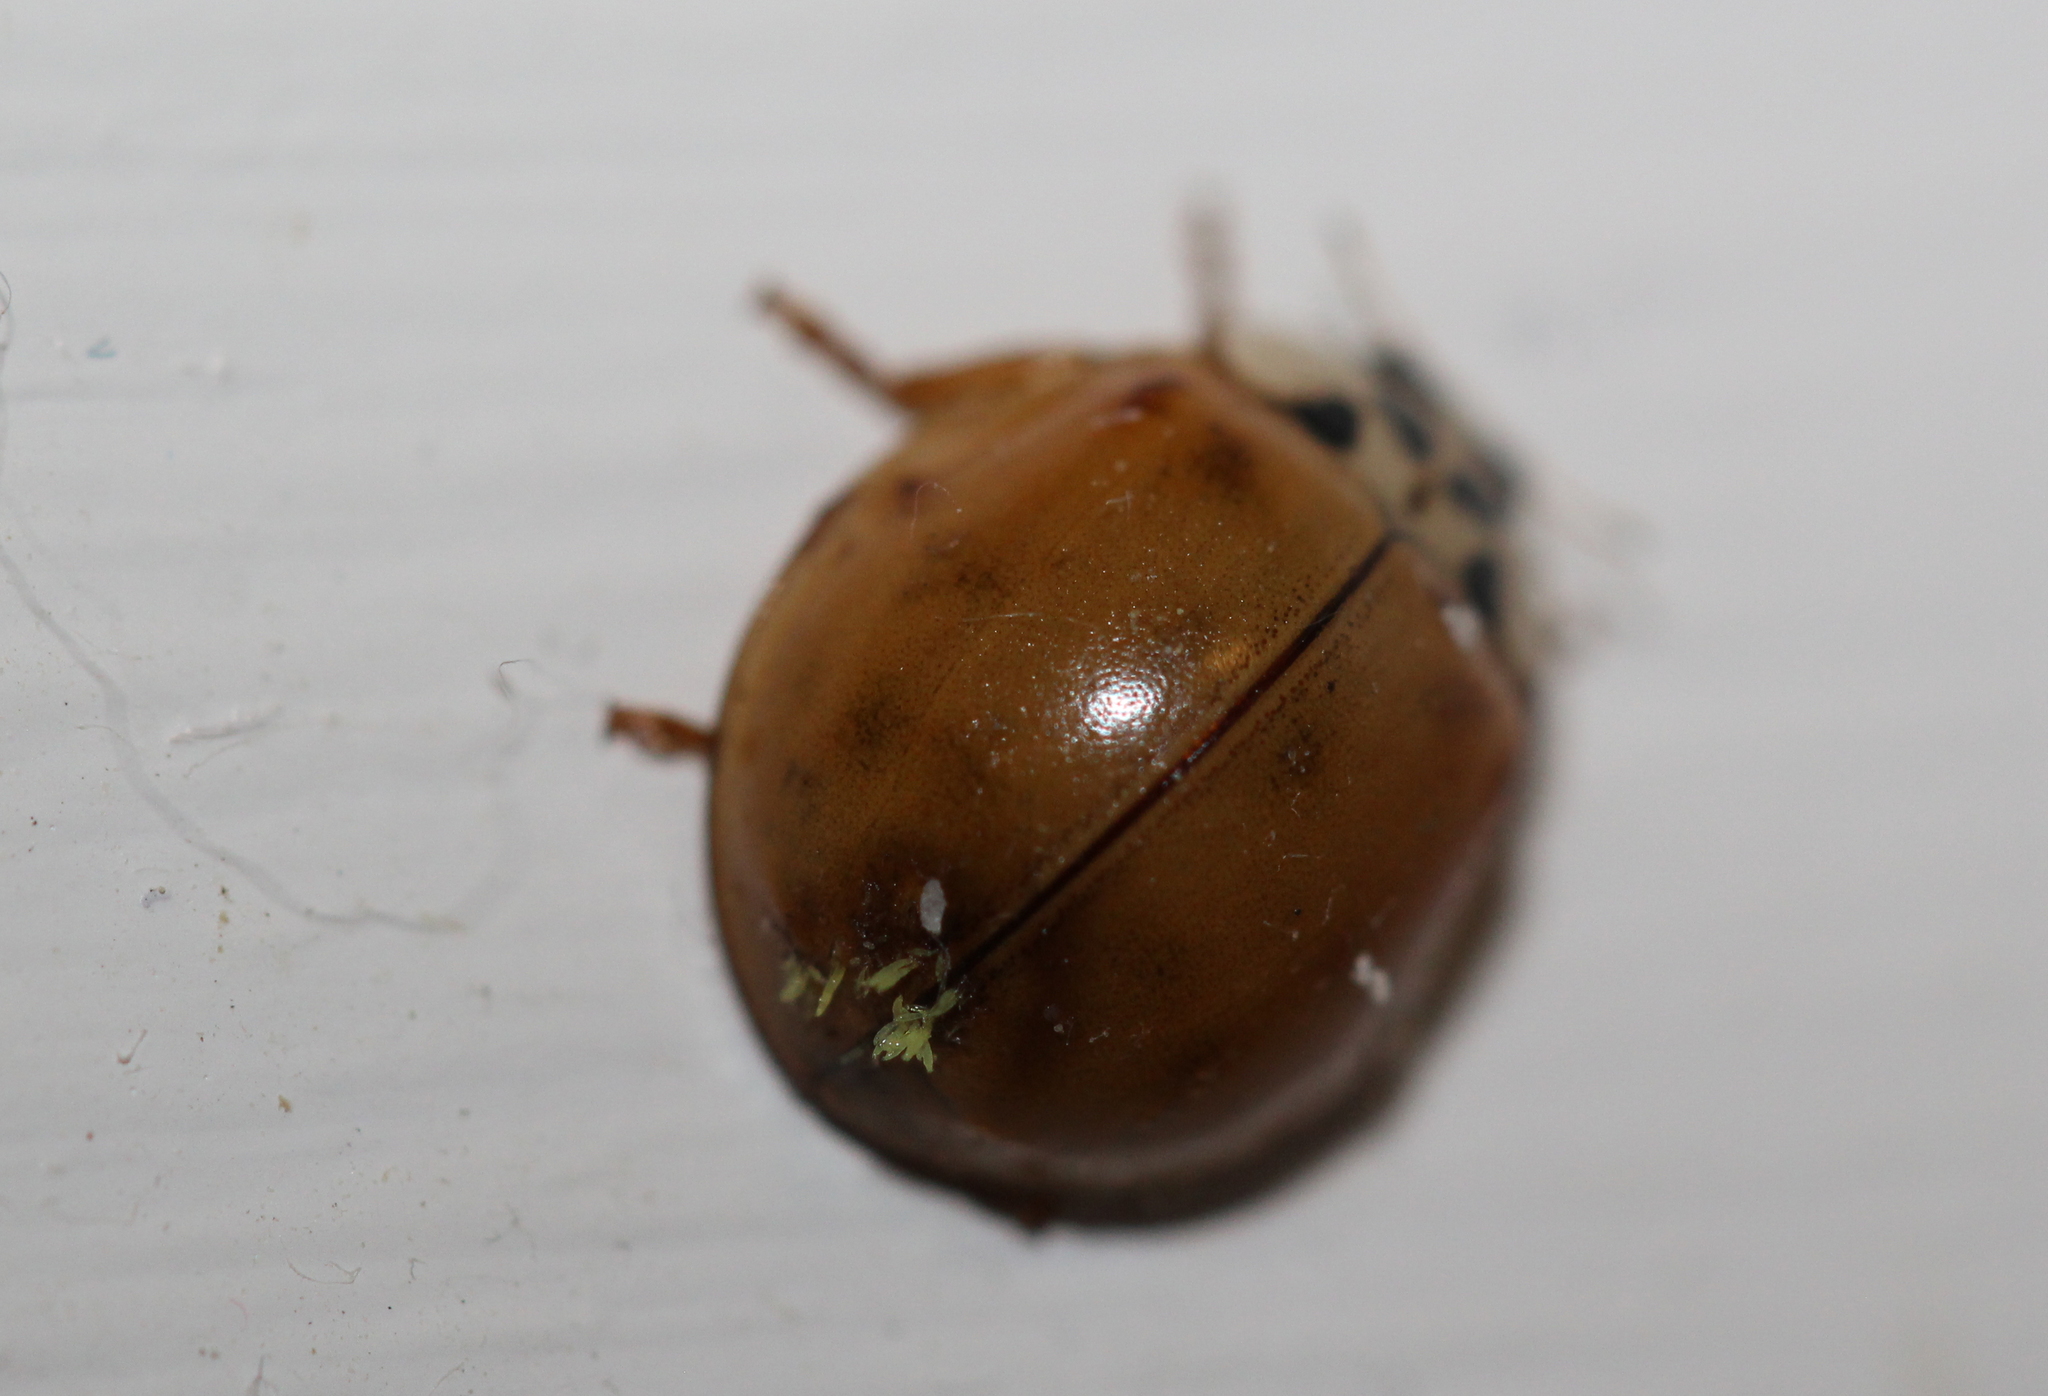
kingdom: Fungi
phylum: Ascomycota
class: Laboulbeniomycetes
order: Laboulbeniales
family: Laboulbeniaceae
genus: Hesperomyces
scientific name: Hesperomyces harmoniae
